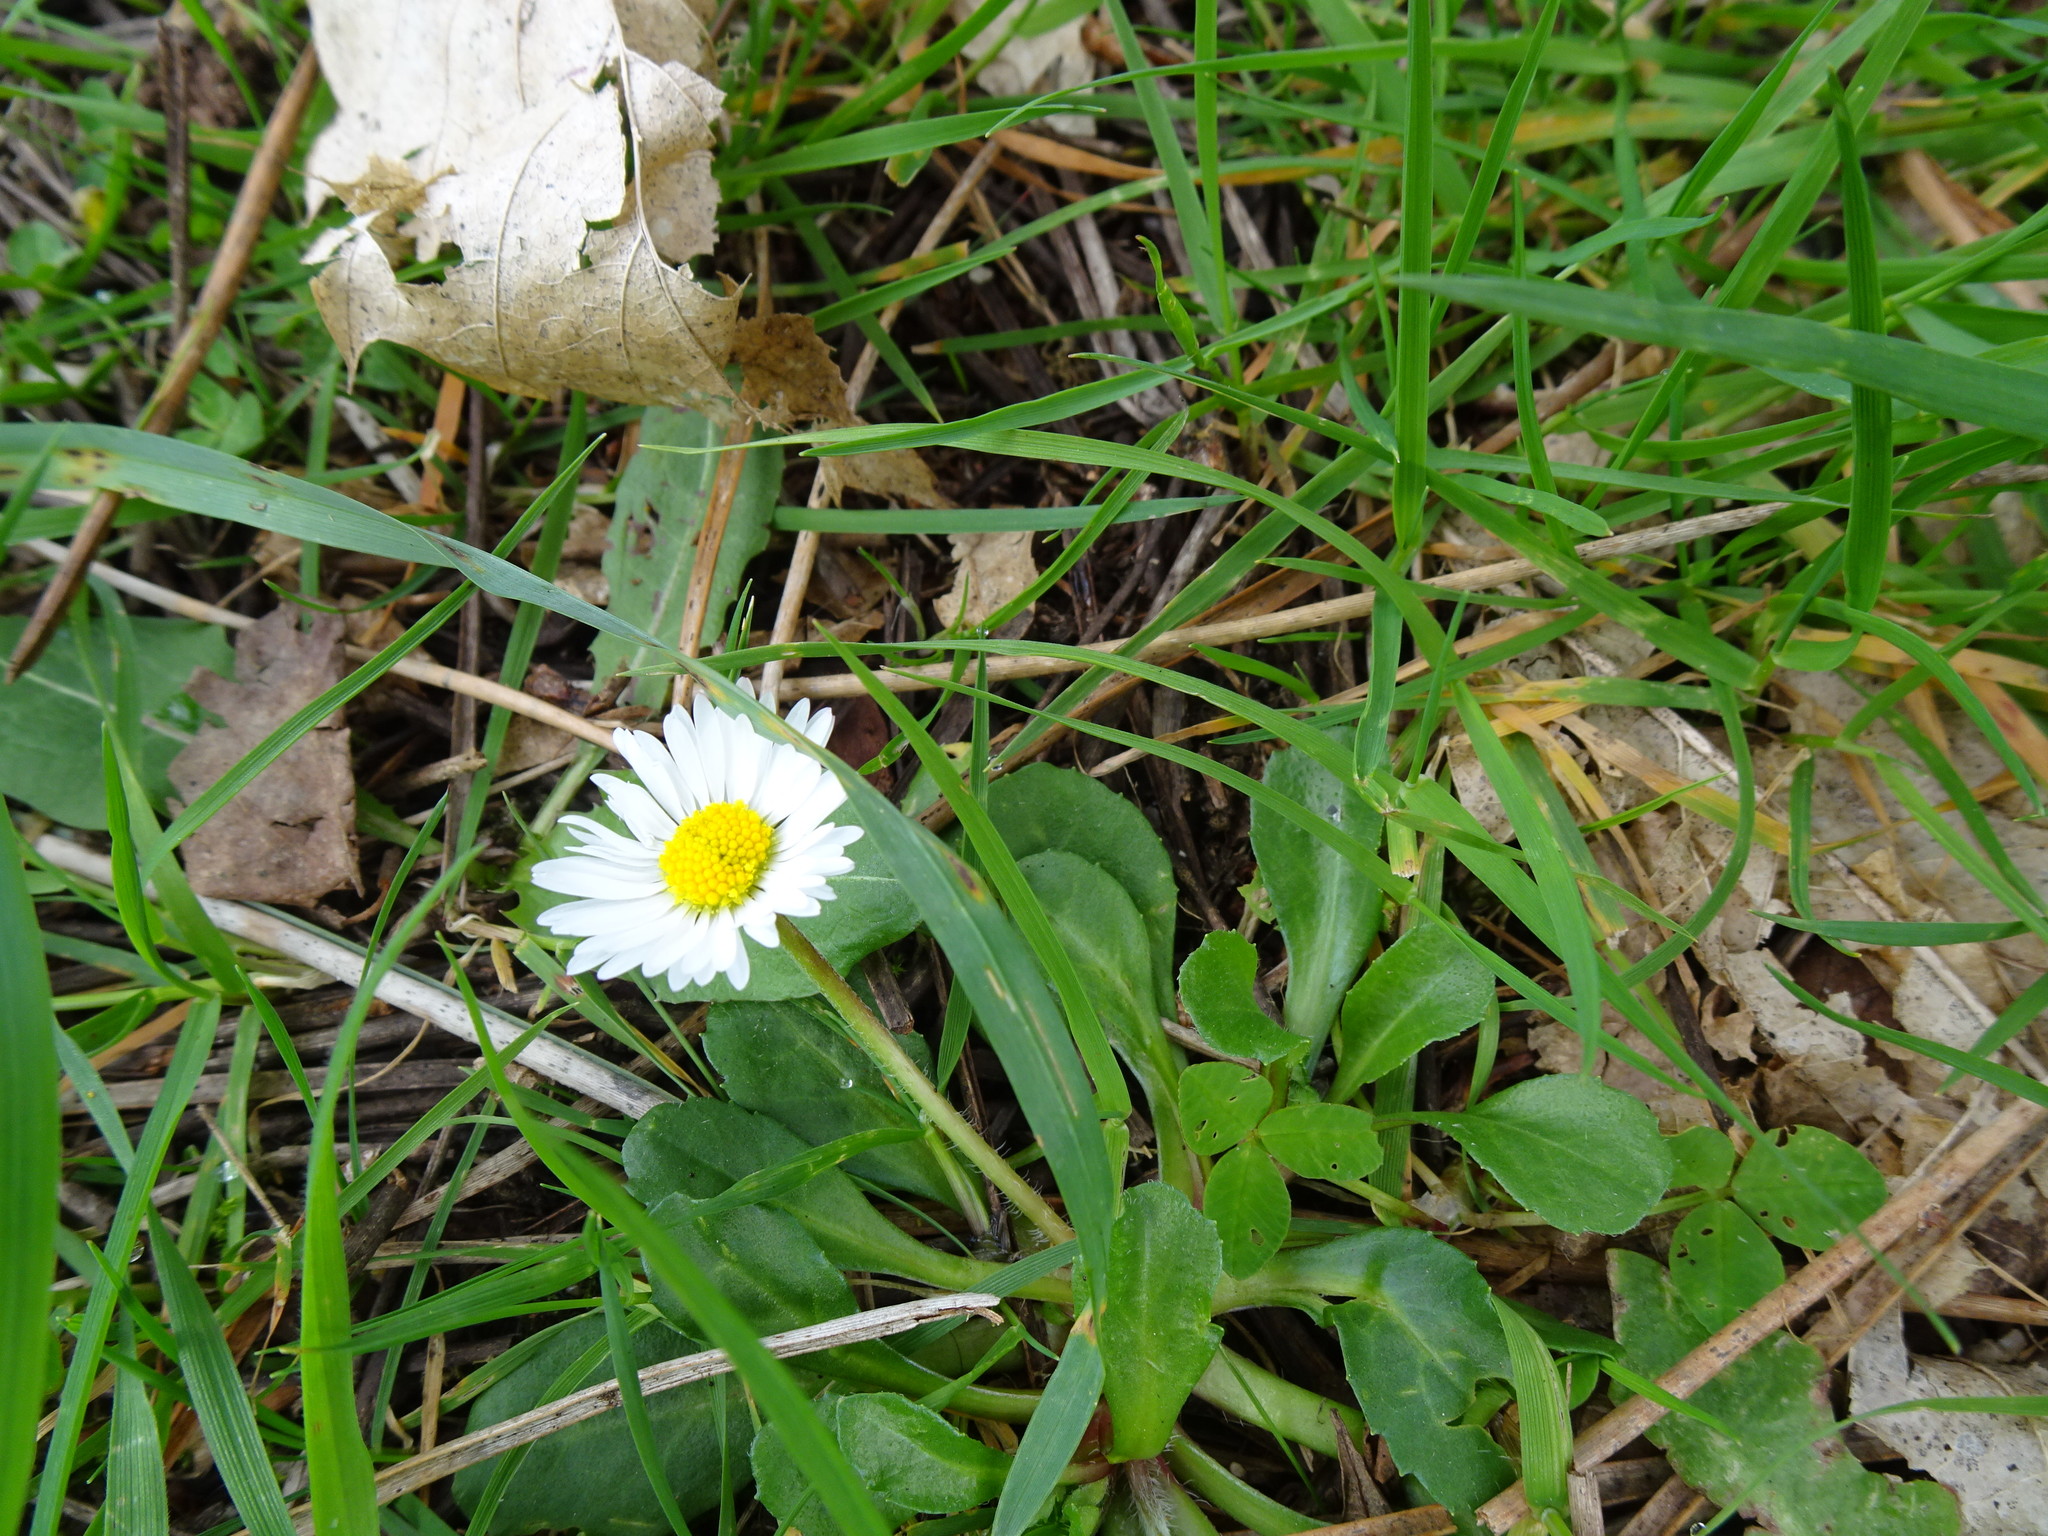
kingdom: Plantae
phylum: Tracheophyta
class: Magnoliopsida
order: Asterales
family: Asteraceae
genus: Bellis
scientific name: Bellis perennis
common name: Lawndaisy
